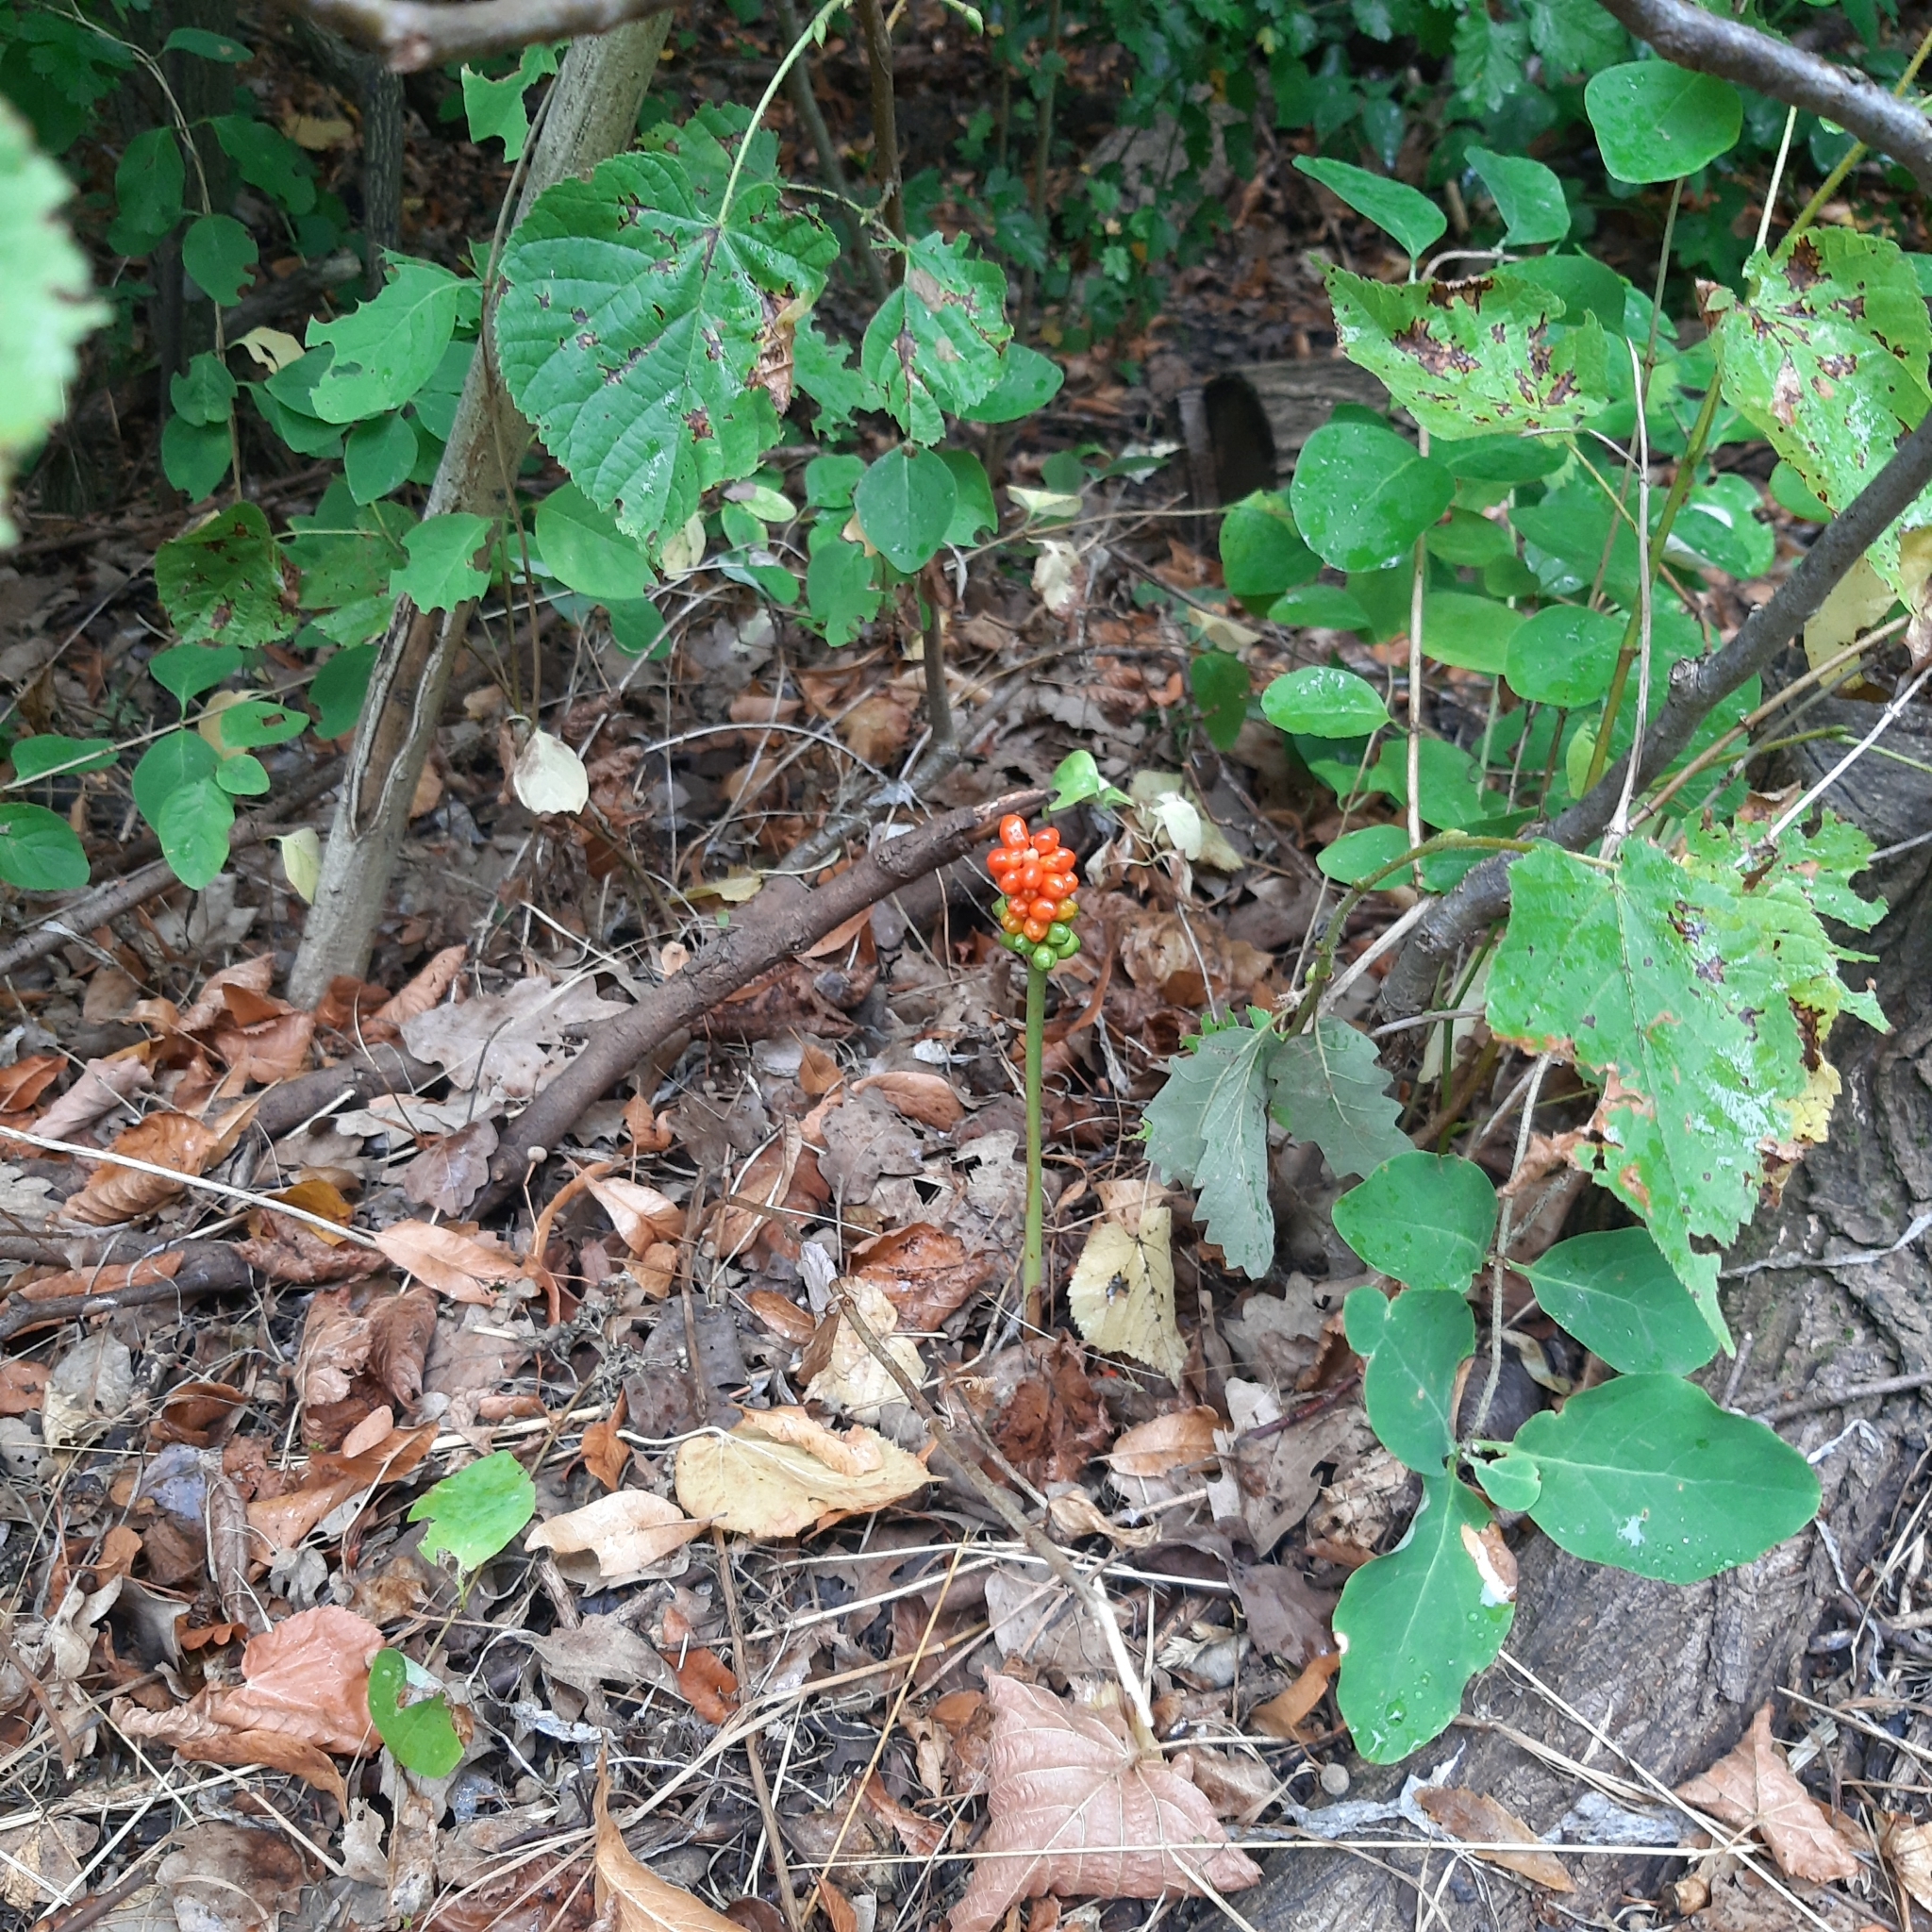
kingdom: Plantae
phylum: Tracheophyta
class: Liliopsida
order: Alismatales
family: Araceae
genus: Arum
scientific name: Arum cylindraceum
